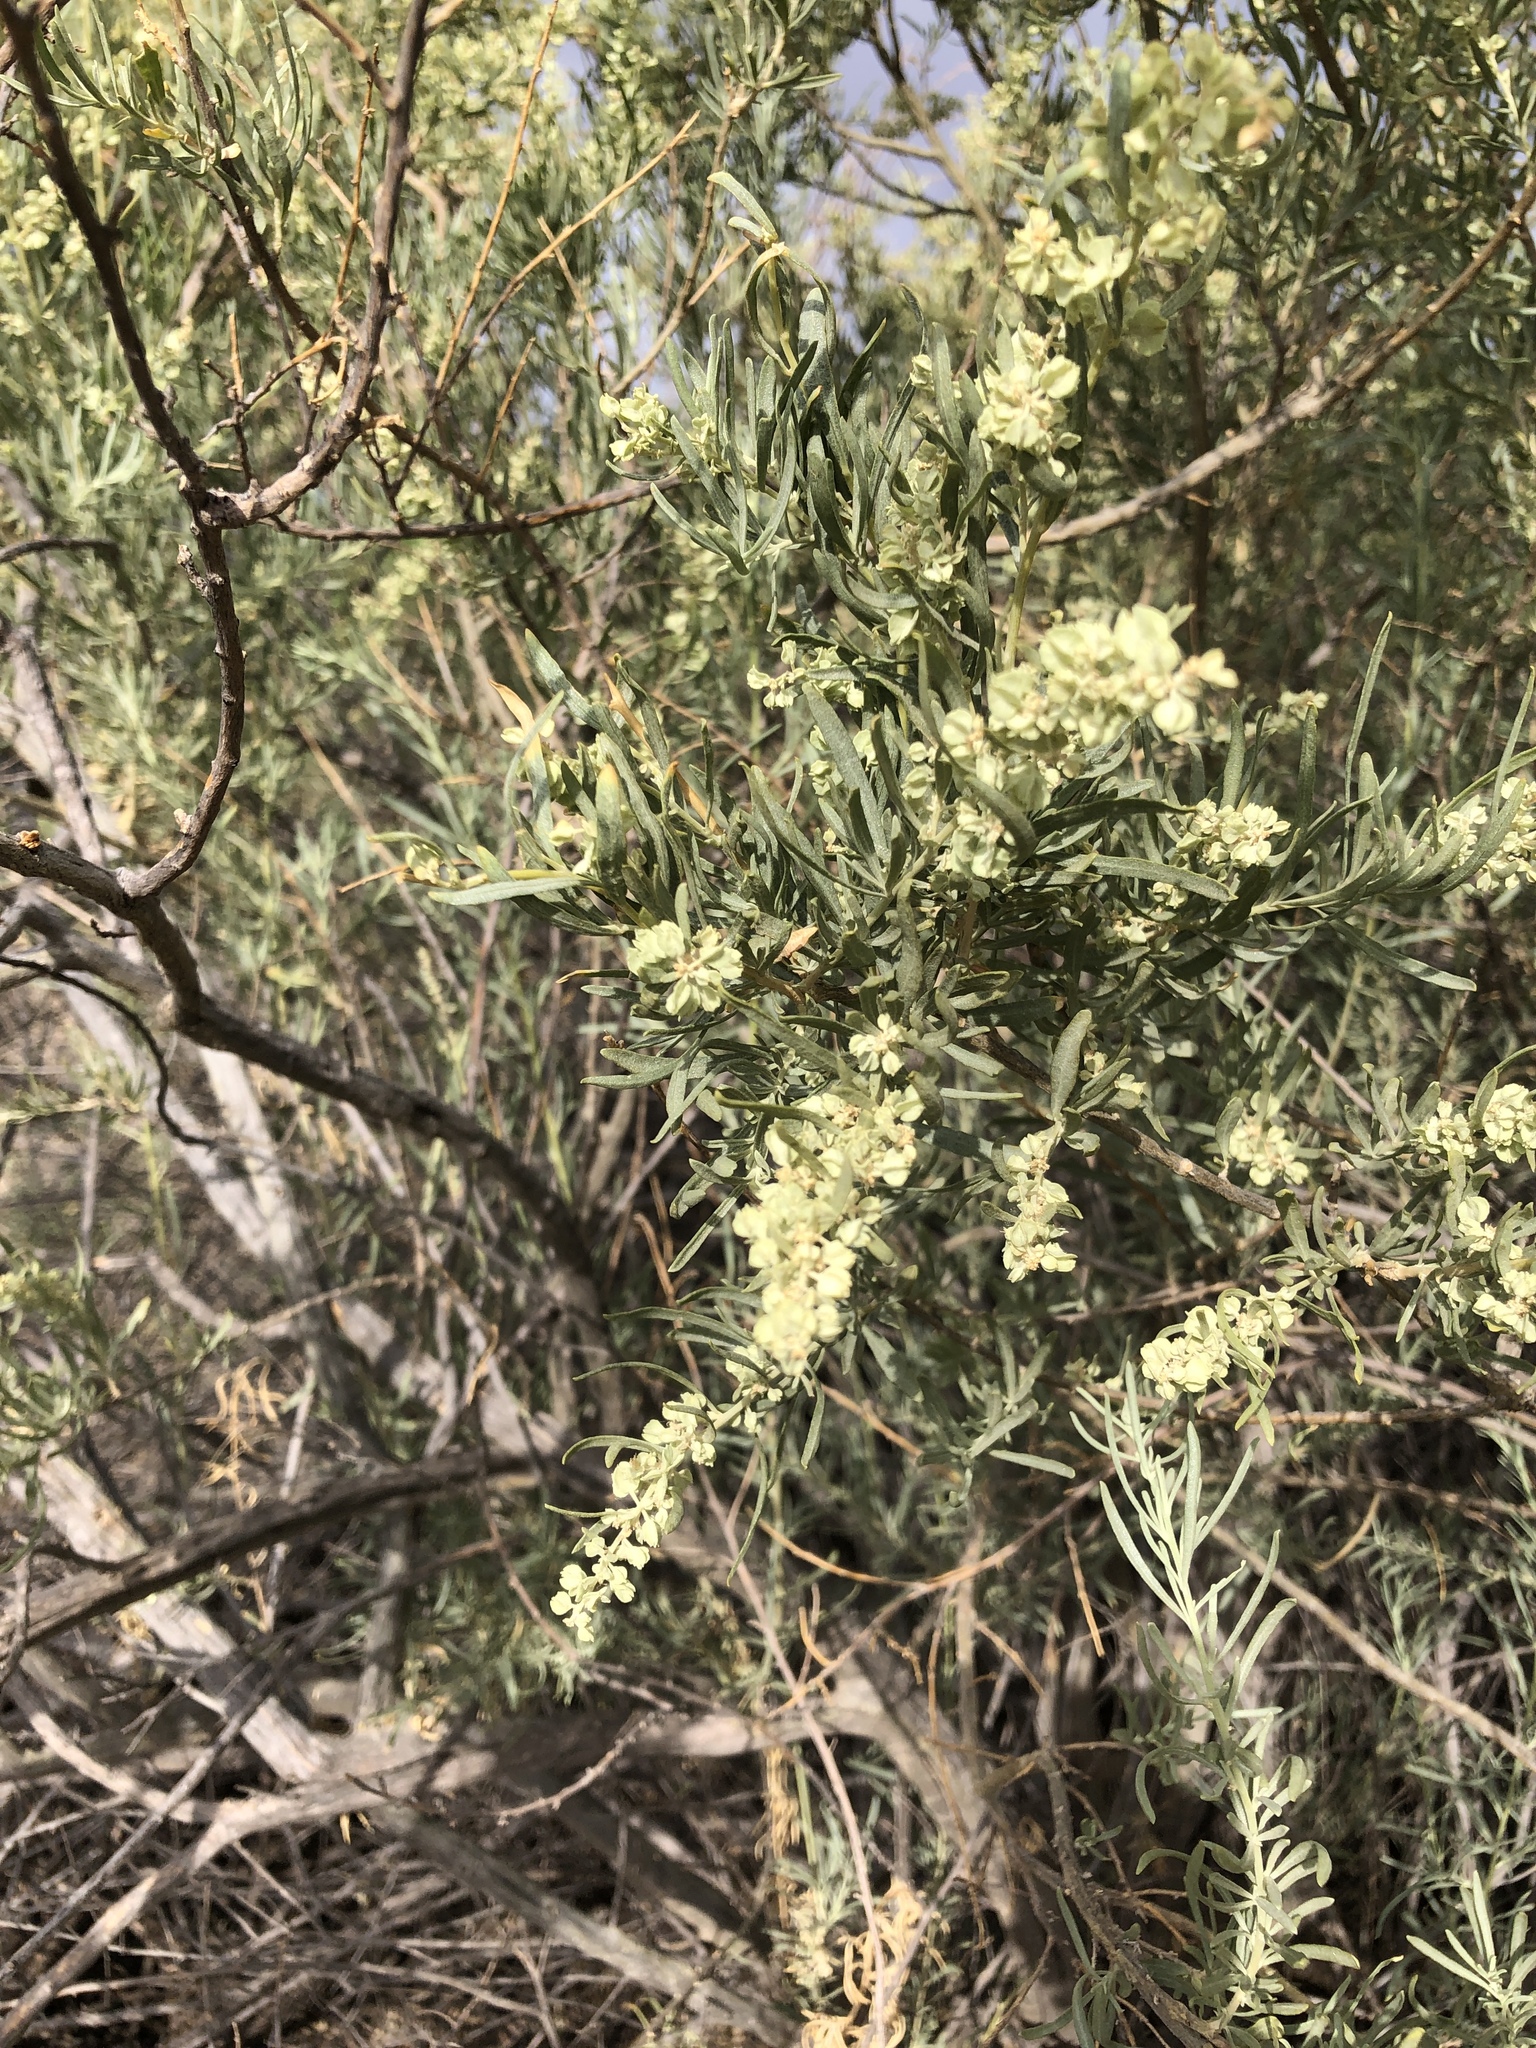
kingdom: Plantae
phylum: Tracheophyta
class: Magnoliopsida
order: Caryophyllales
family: Amaranthaceae
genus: Atriplex
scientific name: Atriplex canescens
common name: Four-wing saltbush
